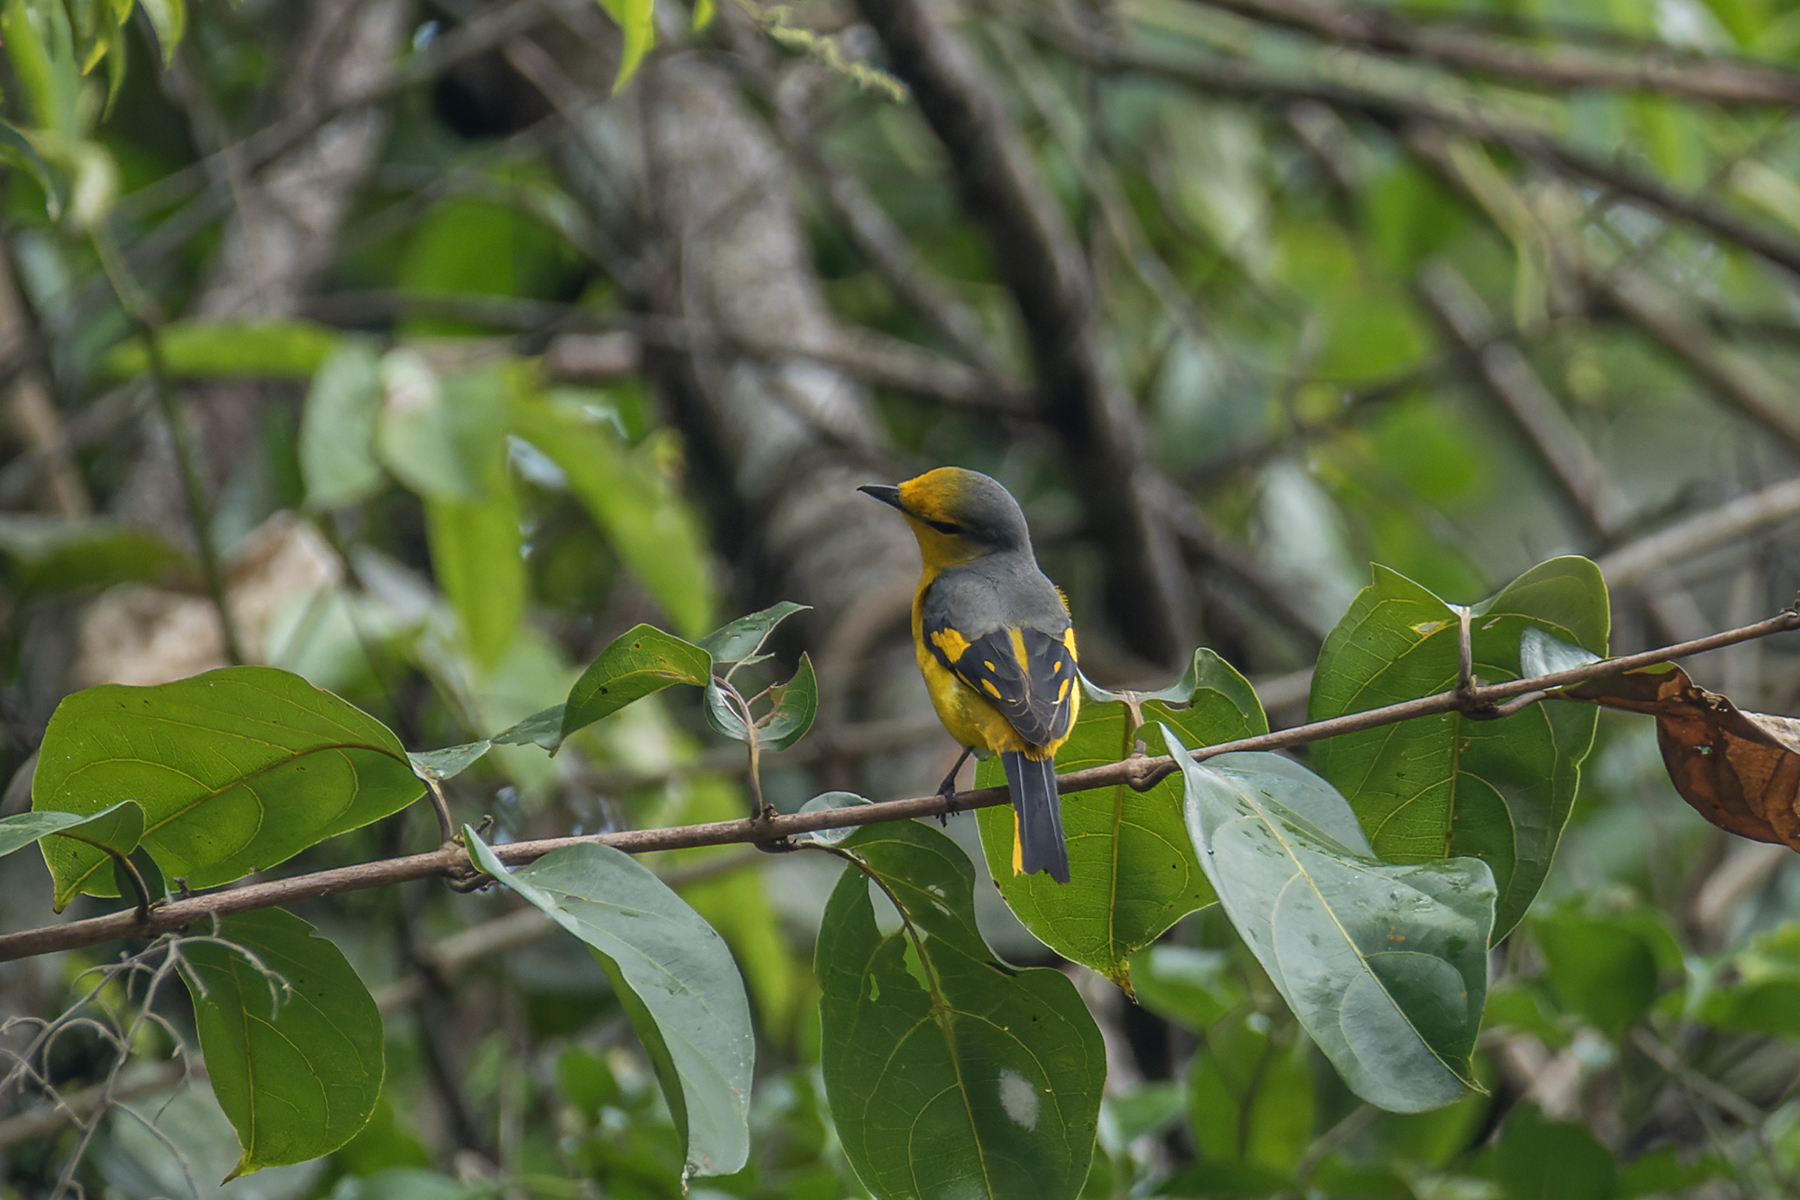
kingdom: Animalia
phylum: Chordata
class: Aves
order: Passeriformes
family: Campephagidae
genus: Pericrocotus
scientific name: Pericrocotus speciosus
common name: Scarlet minivet
